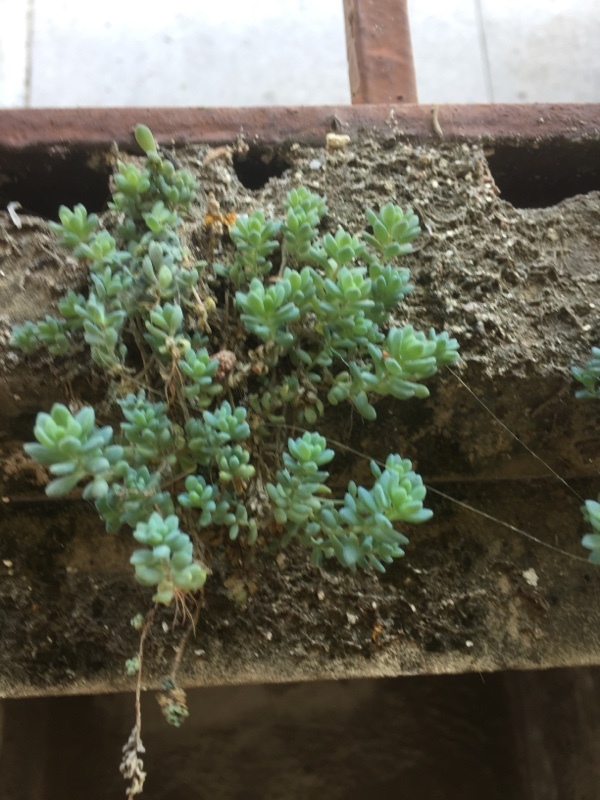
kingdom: Plantae
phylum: Tracheophyta
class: Magnoliopsida
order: Saxifragales
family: Crassulaceae
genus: Sedum
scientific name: Sedum dasyphyllum
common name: Thick-leaf stonecrop
